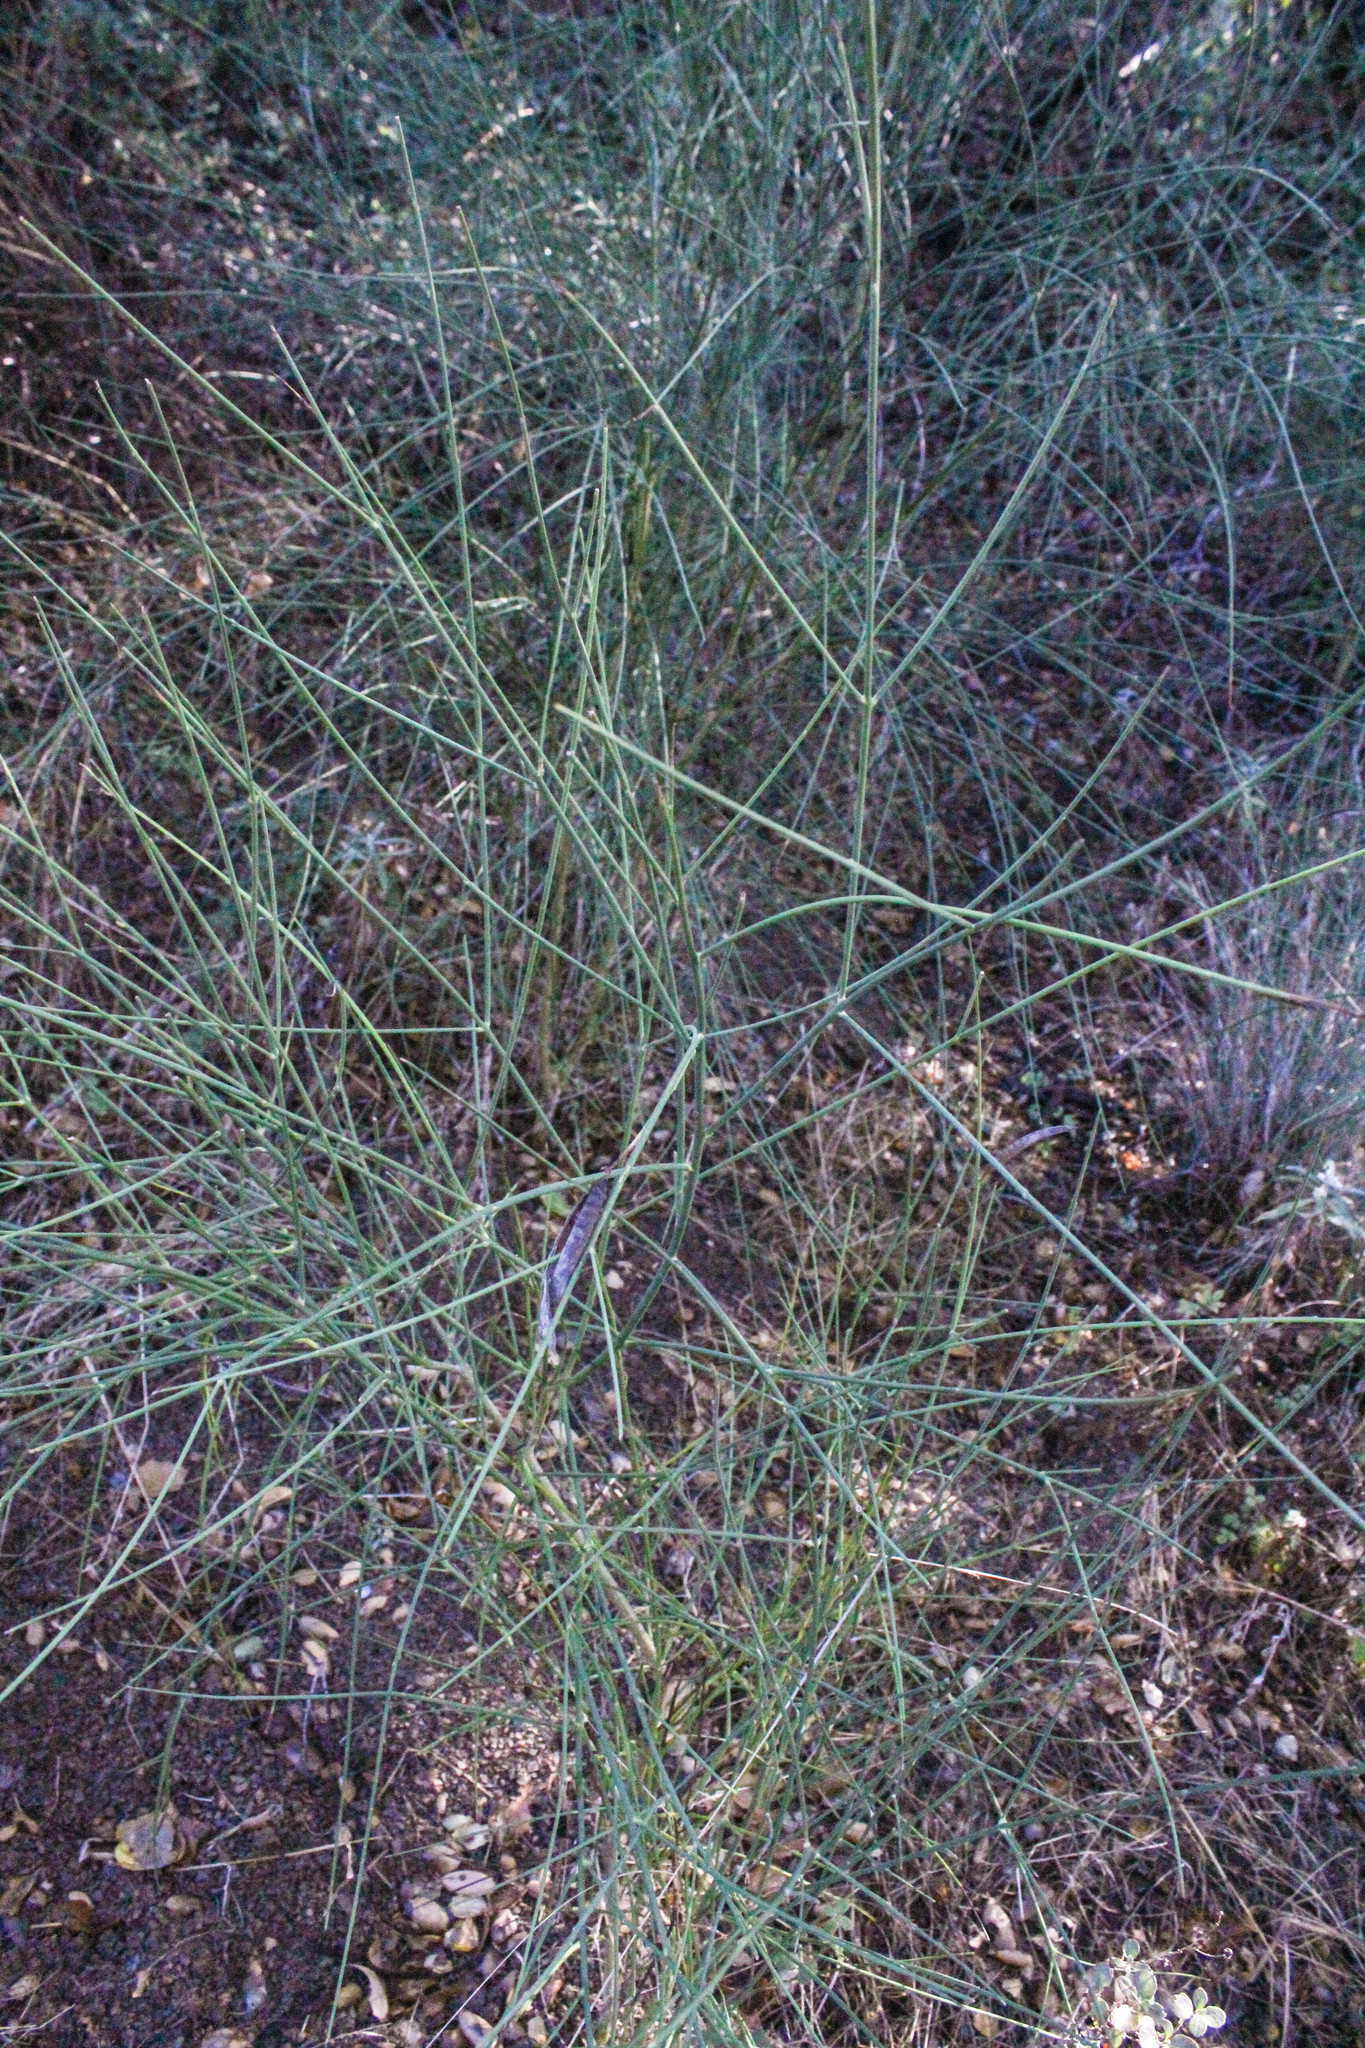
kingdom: Plantae
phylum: Tracheophyta
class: Magnoliopsida
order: Fabales
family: Fabaceae
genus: Spartium
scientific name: Spartium junceum
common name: Spanish broom
